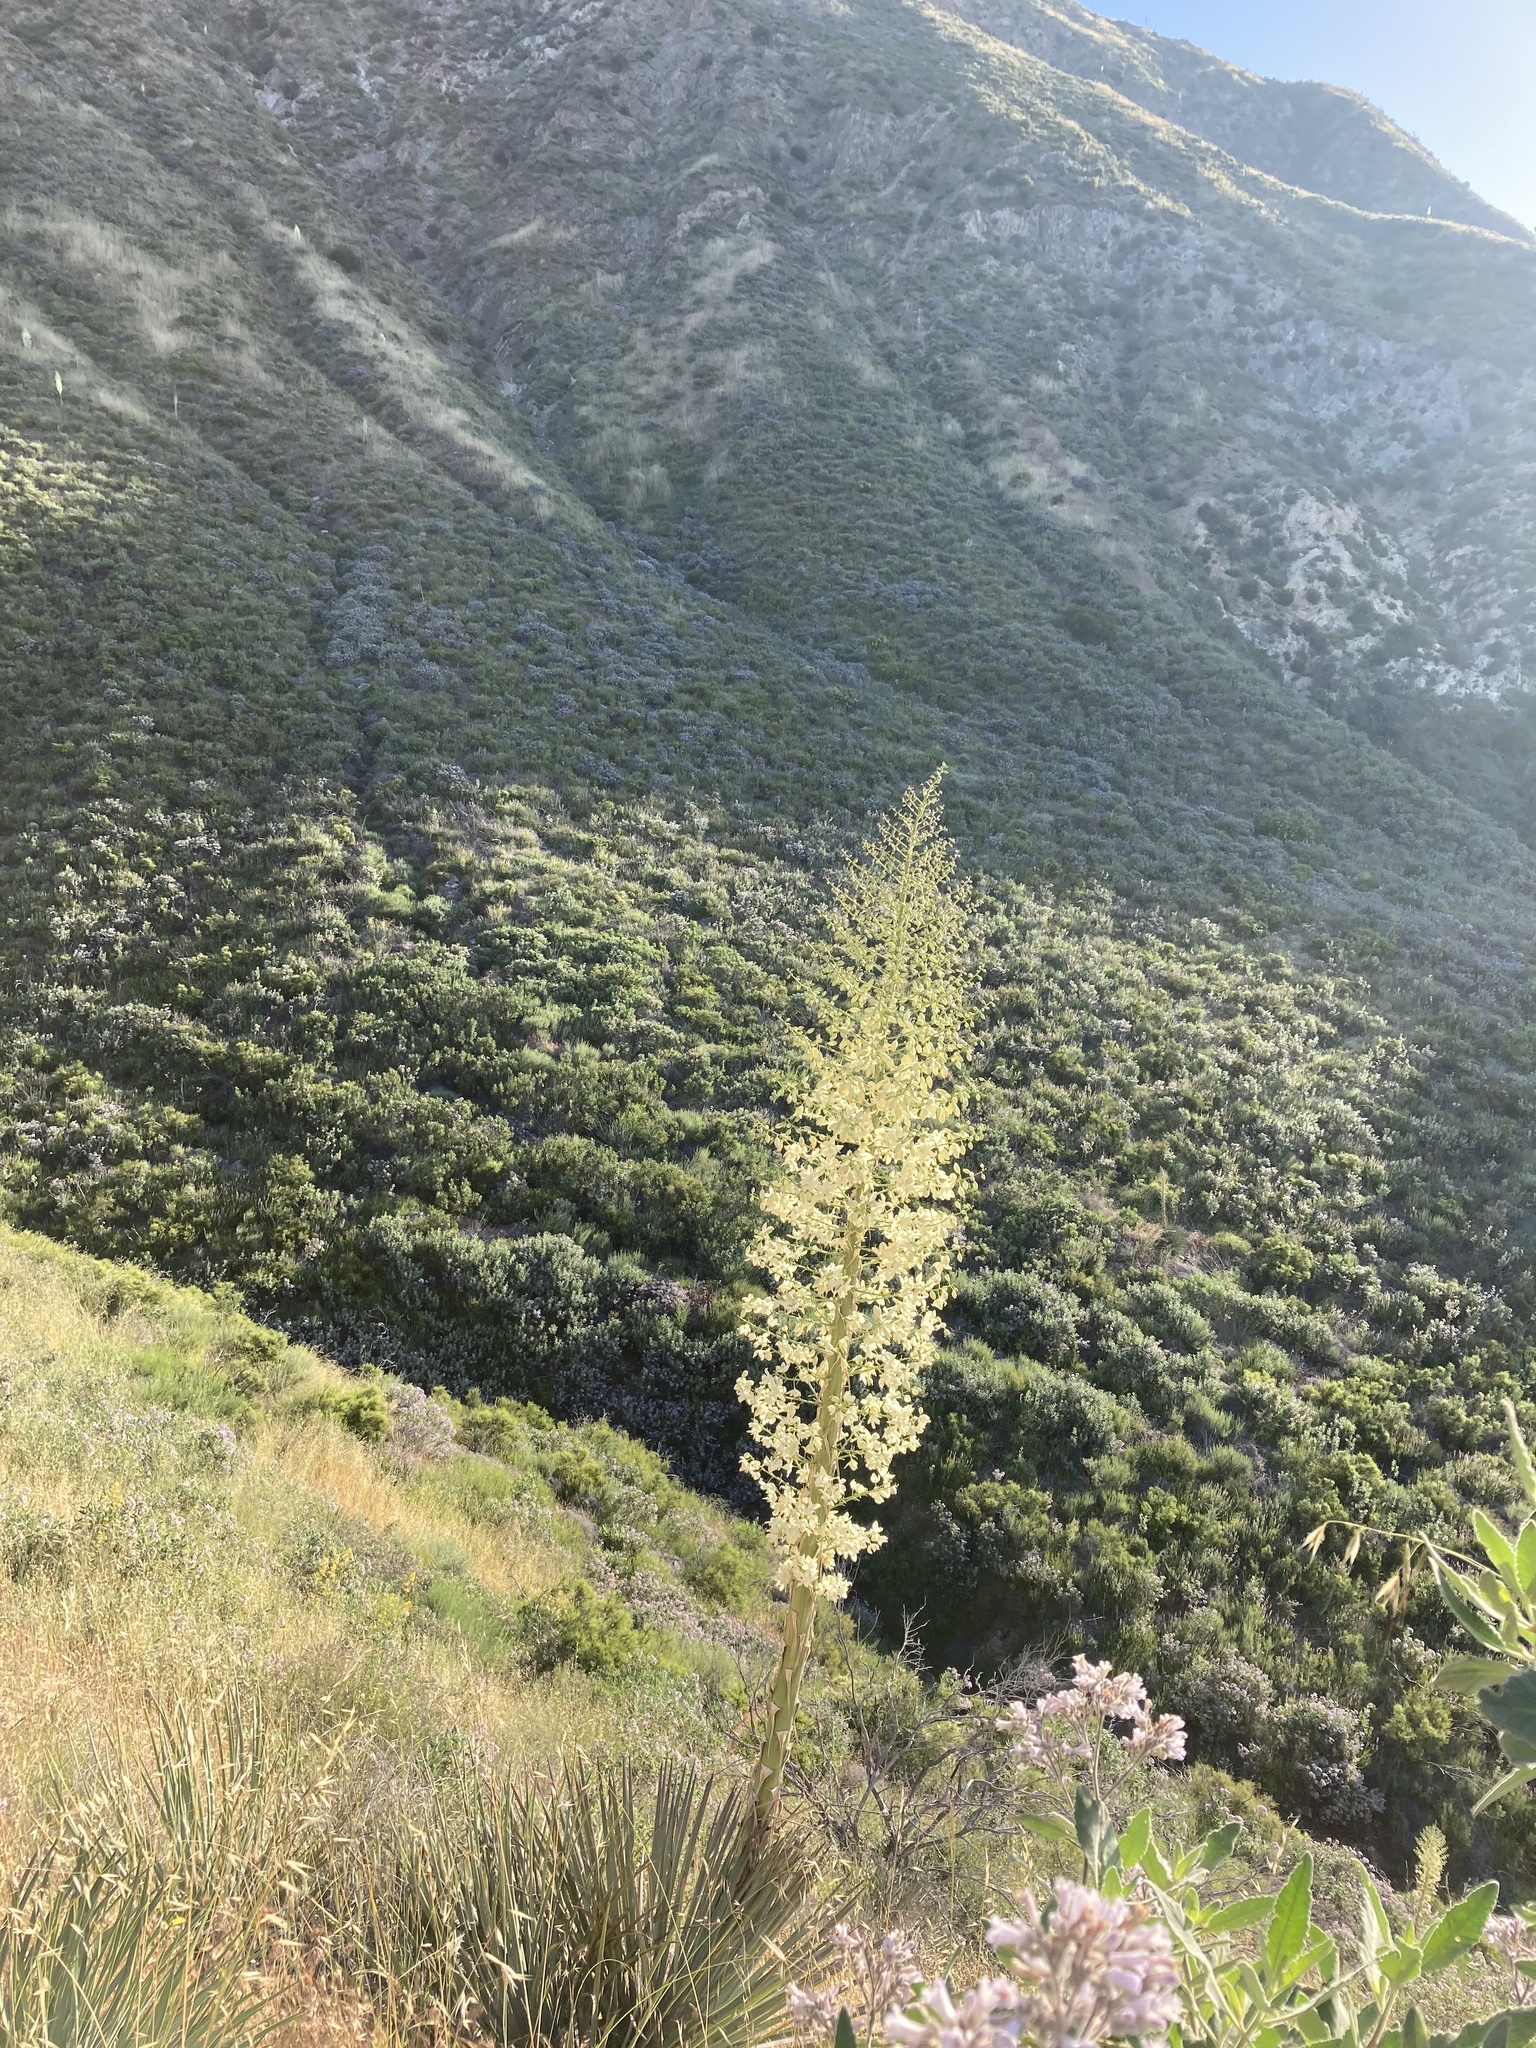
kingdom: Plantae
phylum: Tracheophyta
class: Liliopsida
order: Asparagales
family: Asparagaceae
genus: Hesperoyucca
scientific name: Hesperoyucca whipplei
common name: Our lord's-candle
